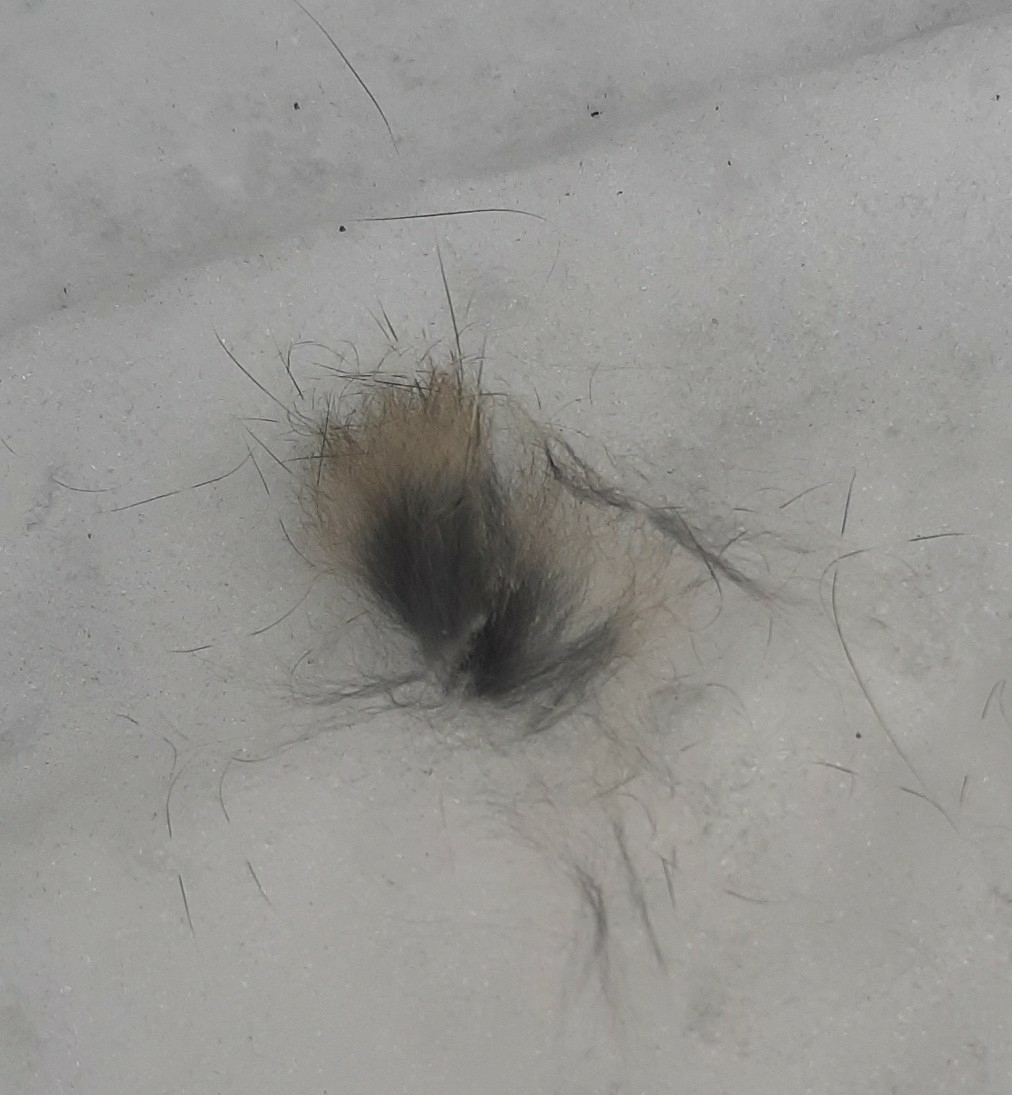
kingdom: Animalia
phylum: Chordata
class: Mammalia
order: Lagomorpha
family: Leporidae
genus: Sylvilagus
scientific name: Sylvilagus floridanus
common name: Eastern cottontail
